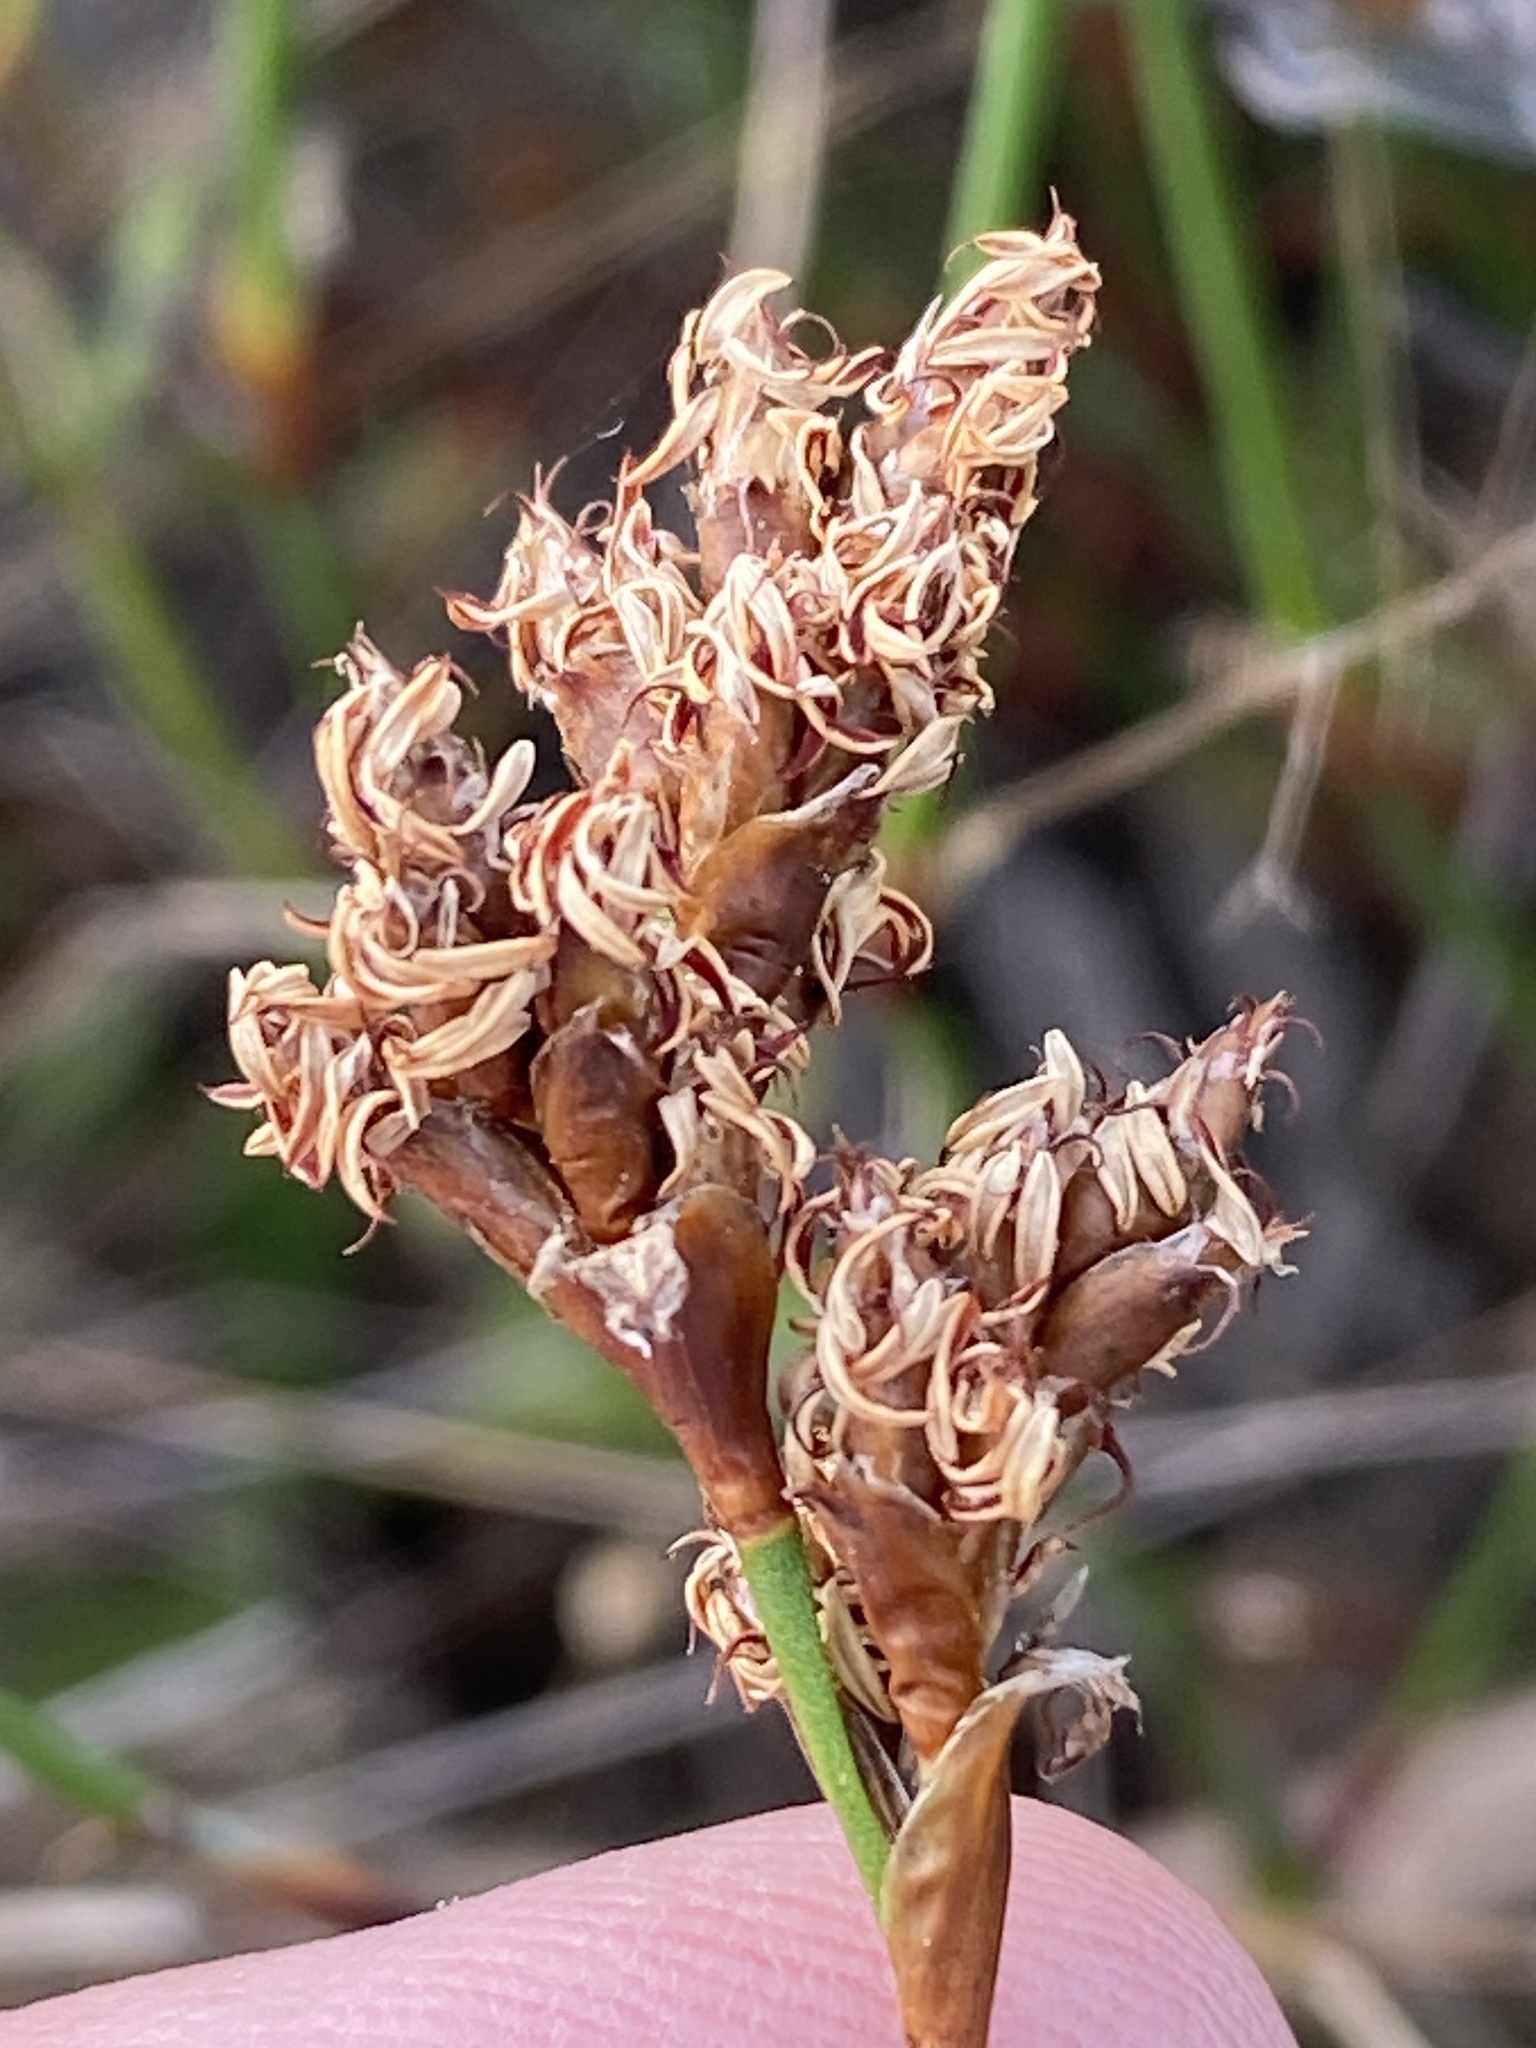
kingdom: Plantae
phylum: Tracheophyta
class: Liliopsida
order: Poales
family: Restionaceae
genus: Restio
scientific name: Restio capensis
